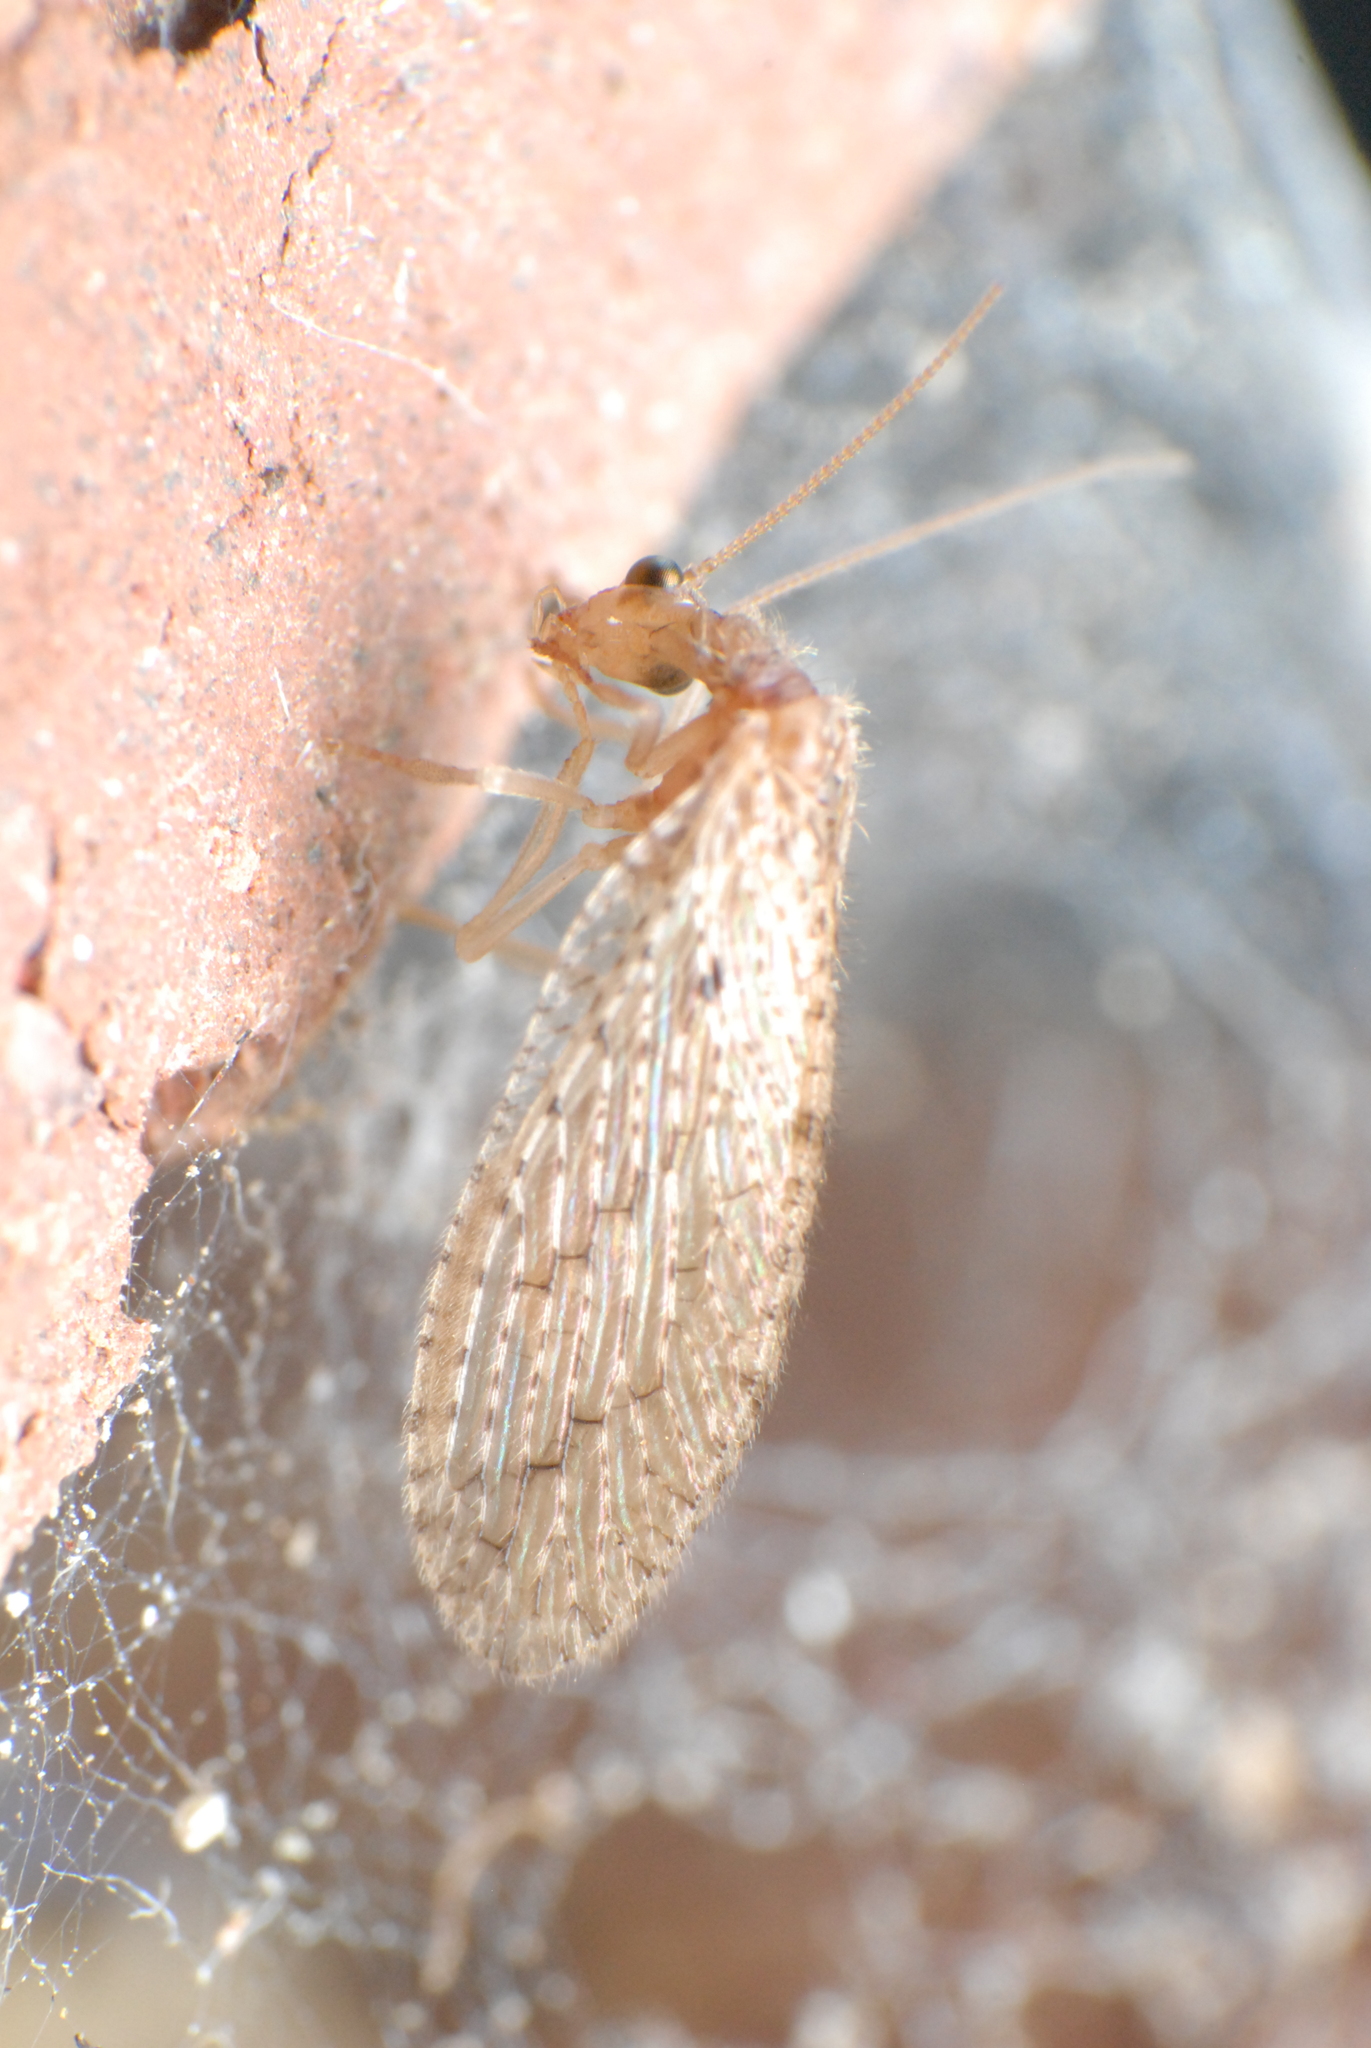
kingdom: Animalia
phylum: Arthropoda
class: Insecta
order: Neuroptera
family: Hemerobiidae
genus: Micromus
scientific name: Micromus tasmaniae
